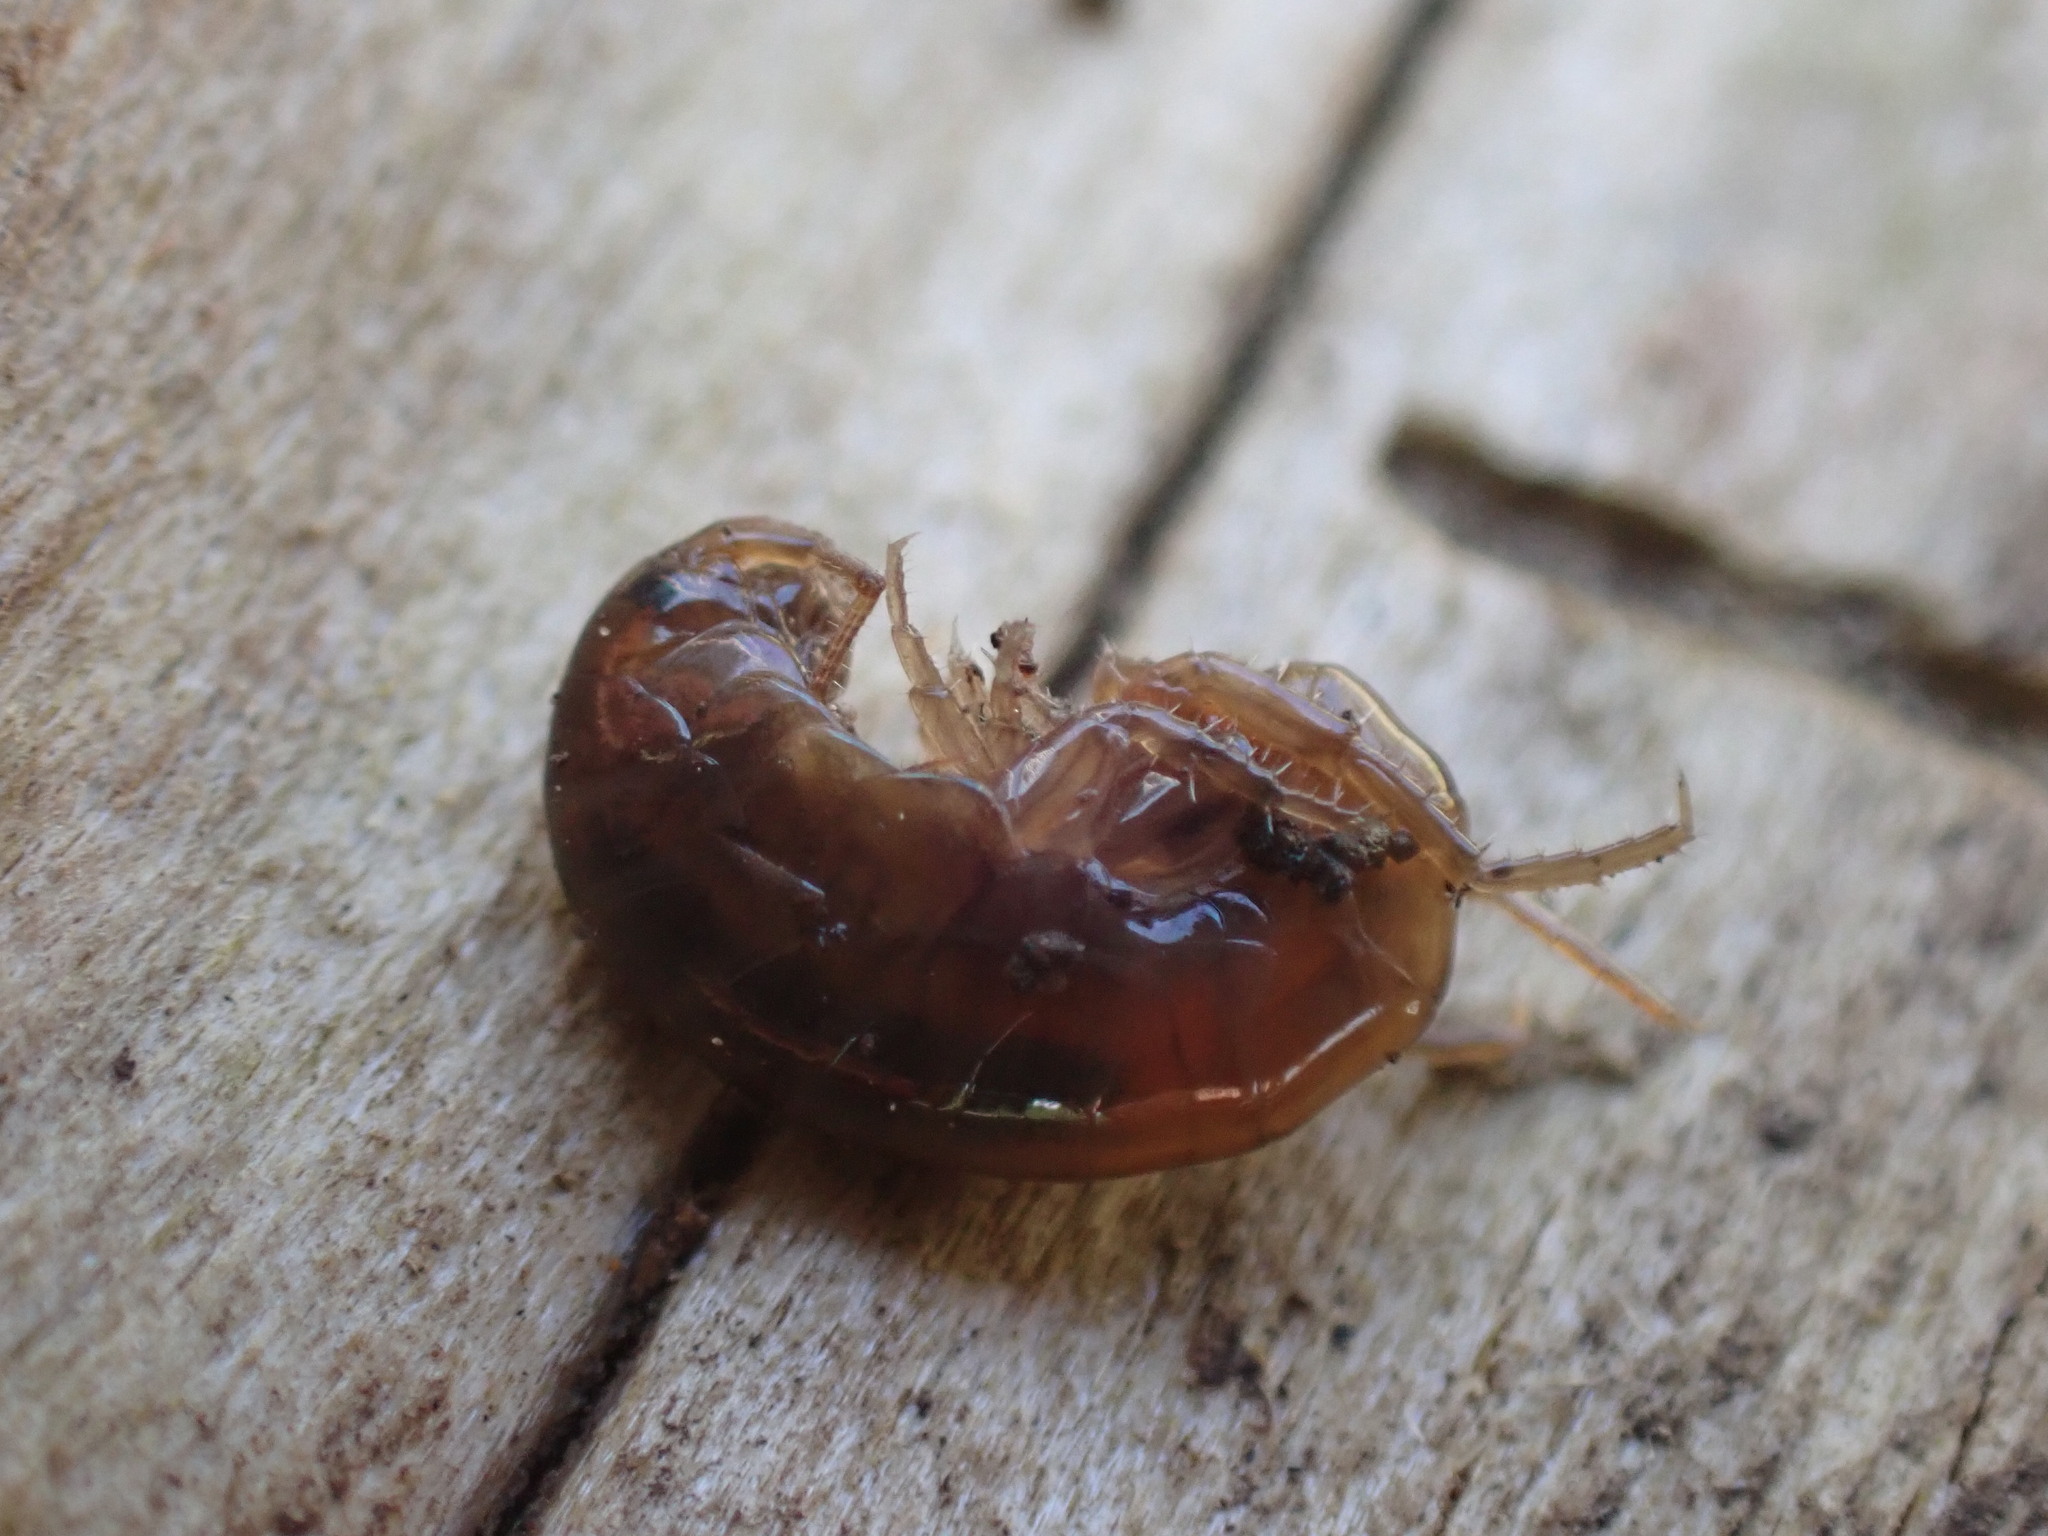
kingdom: Animalia
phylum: Arthropoda
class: Malacostraca
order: Amphipoda
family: Arcitalitridae
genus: Arcitalitrus
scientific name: Arcitalitrus dorrieni
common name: Landhopper
